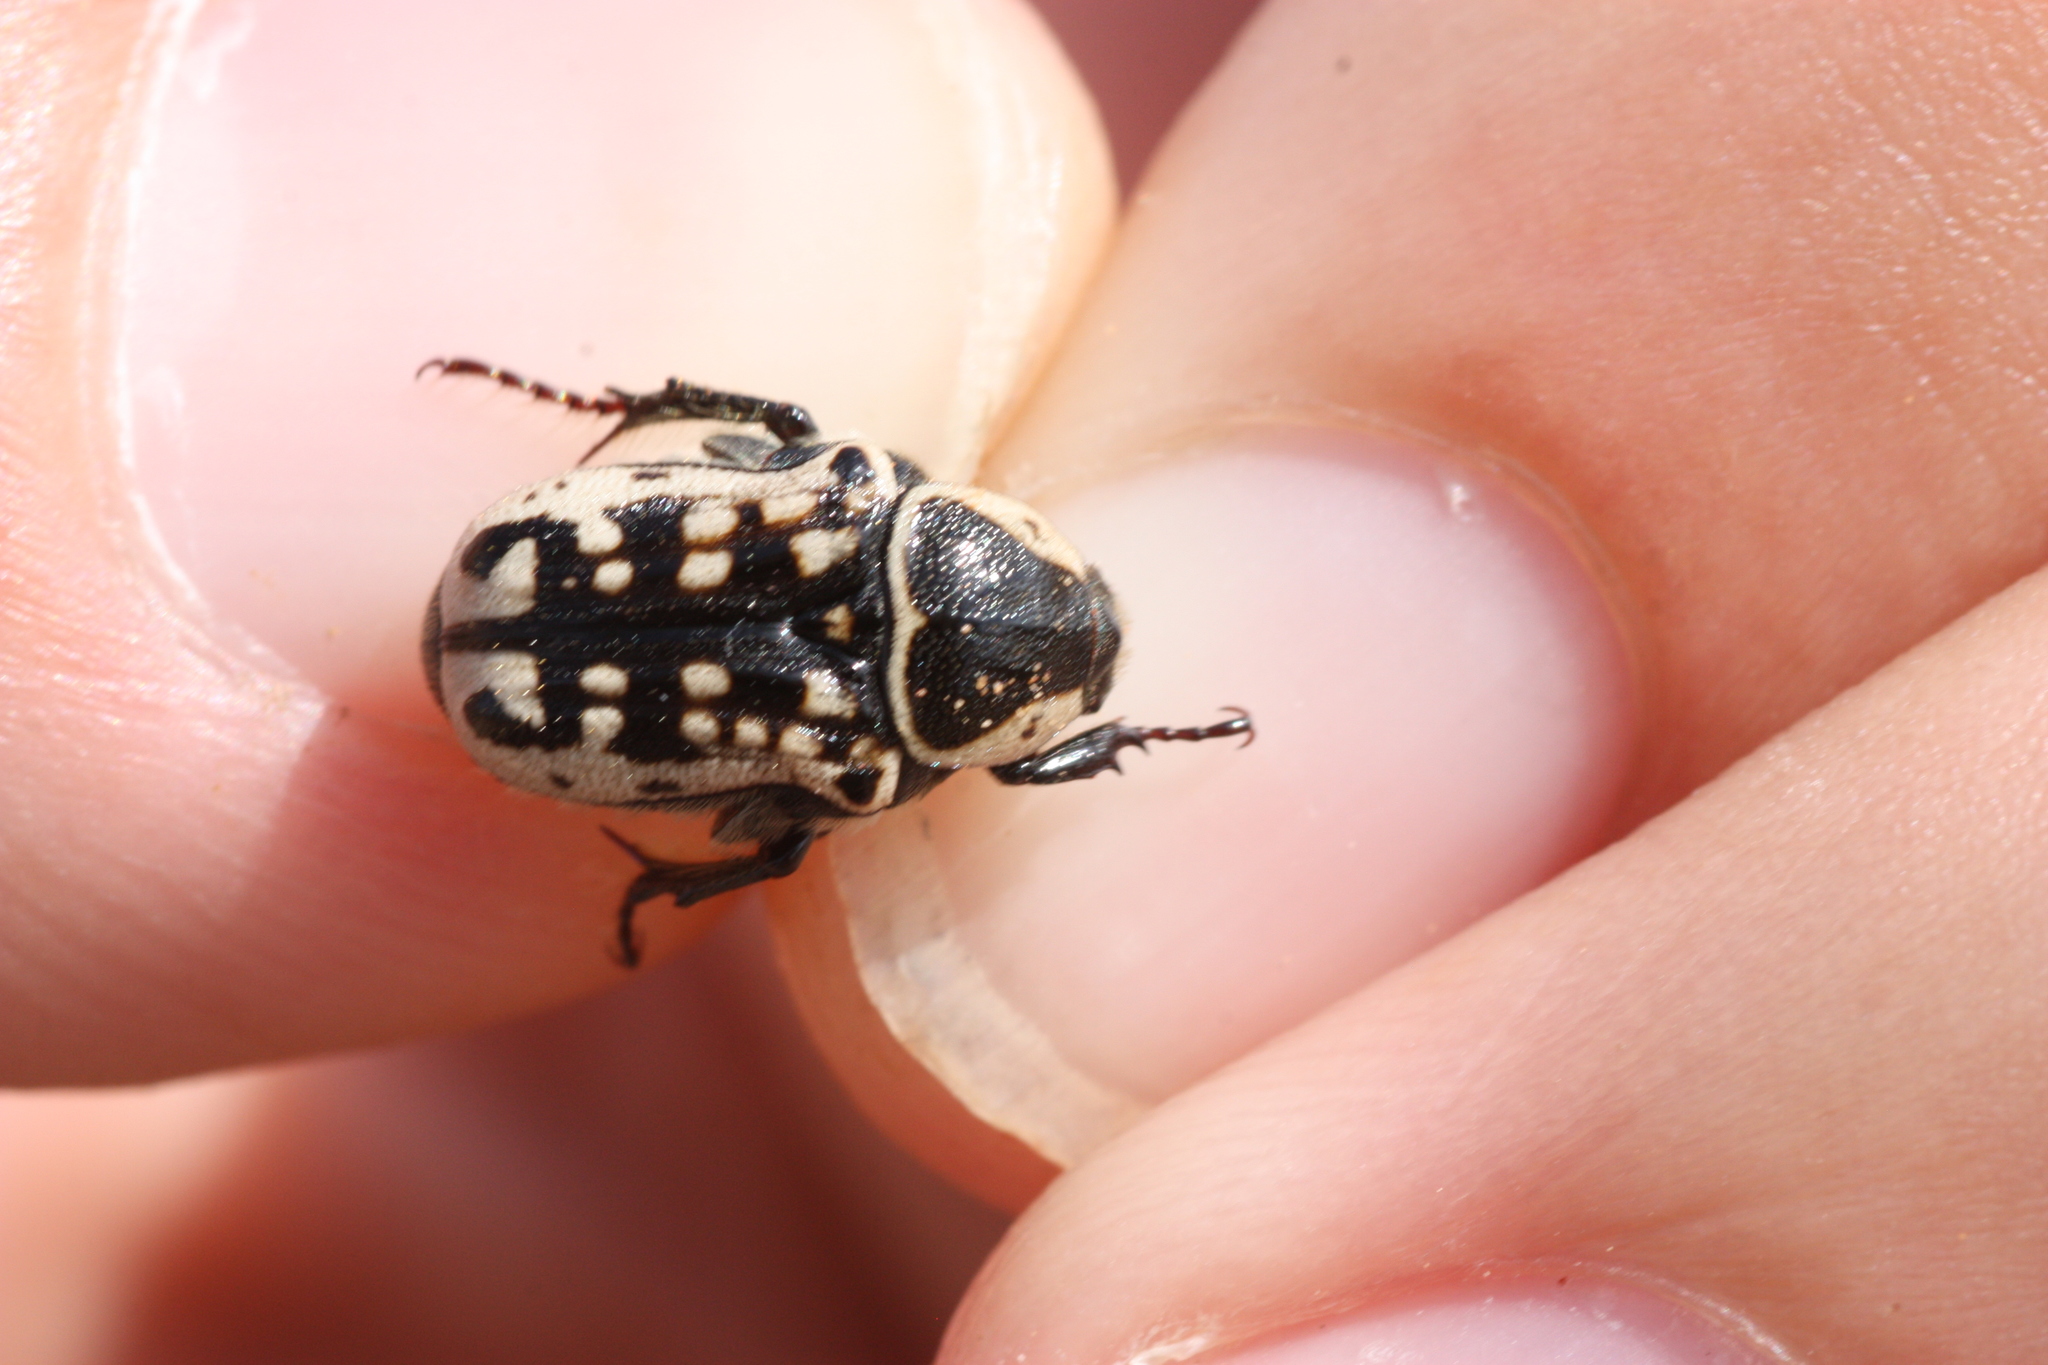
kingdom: Animalia
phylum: Arthropoda
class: Insecta
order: Coleoptera
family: Scarabaeidae
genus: Euphoria
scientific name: Euphoria kernii
